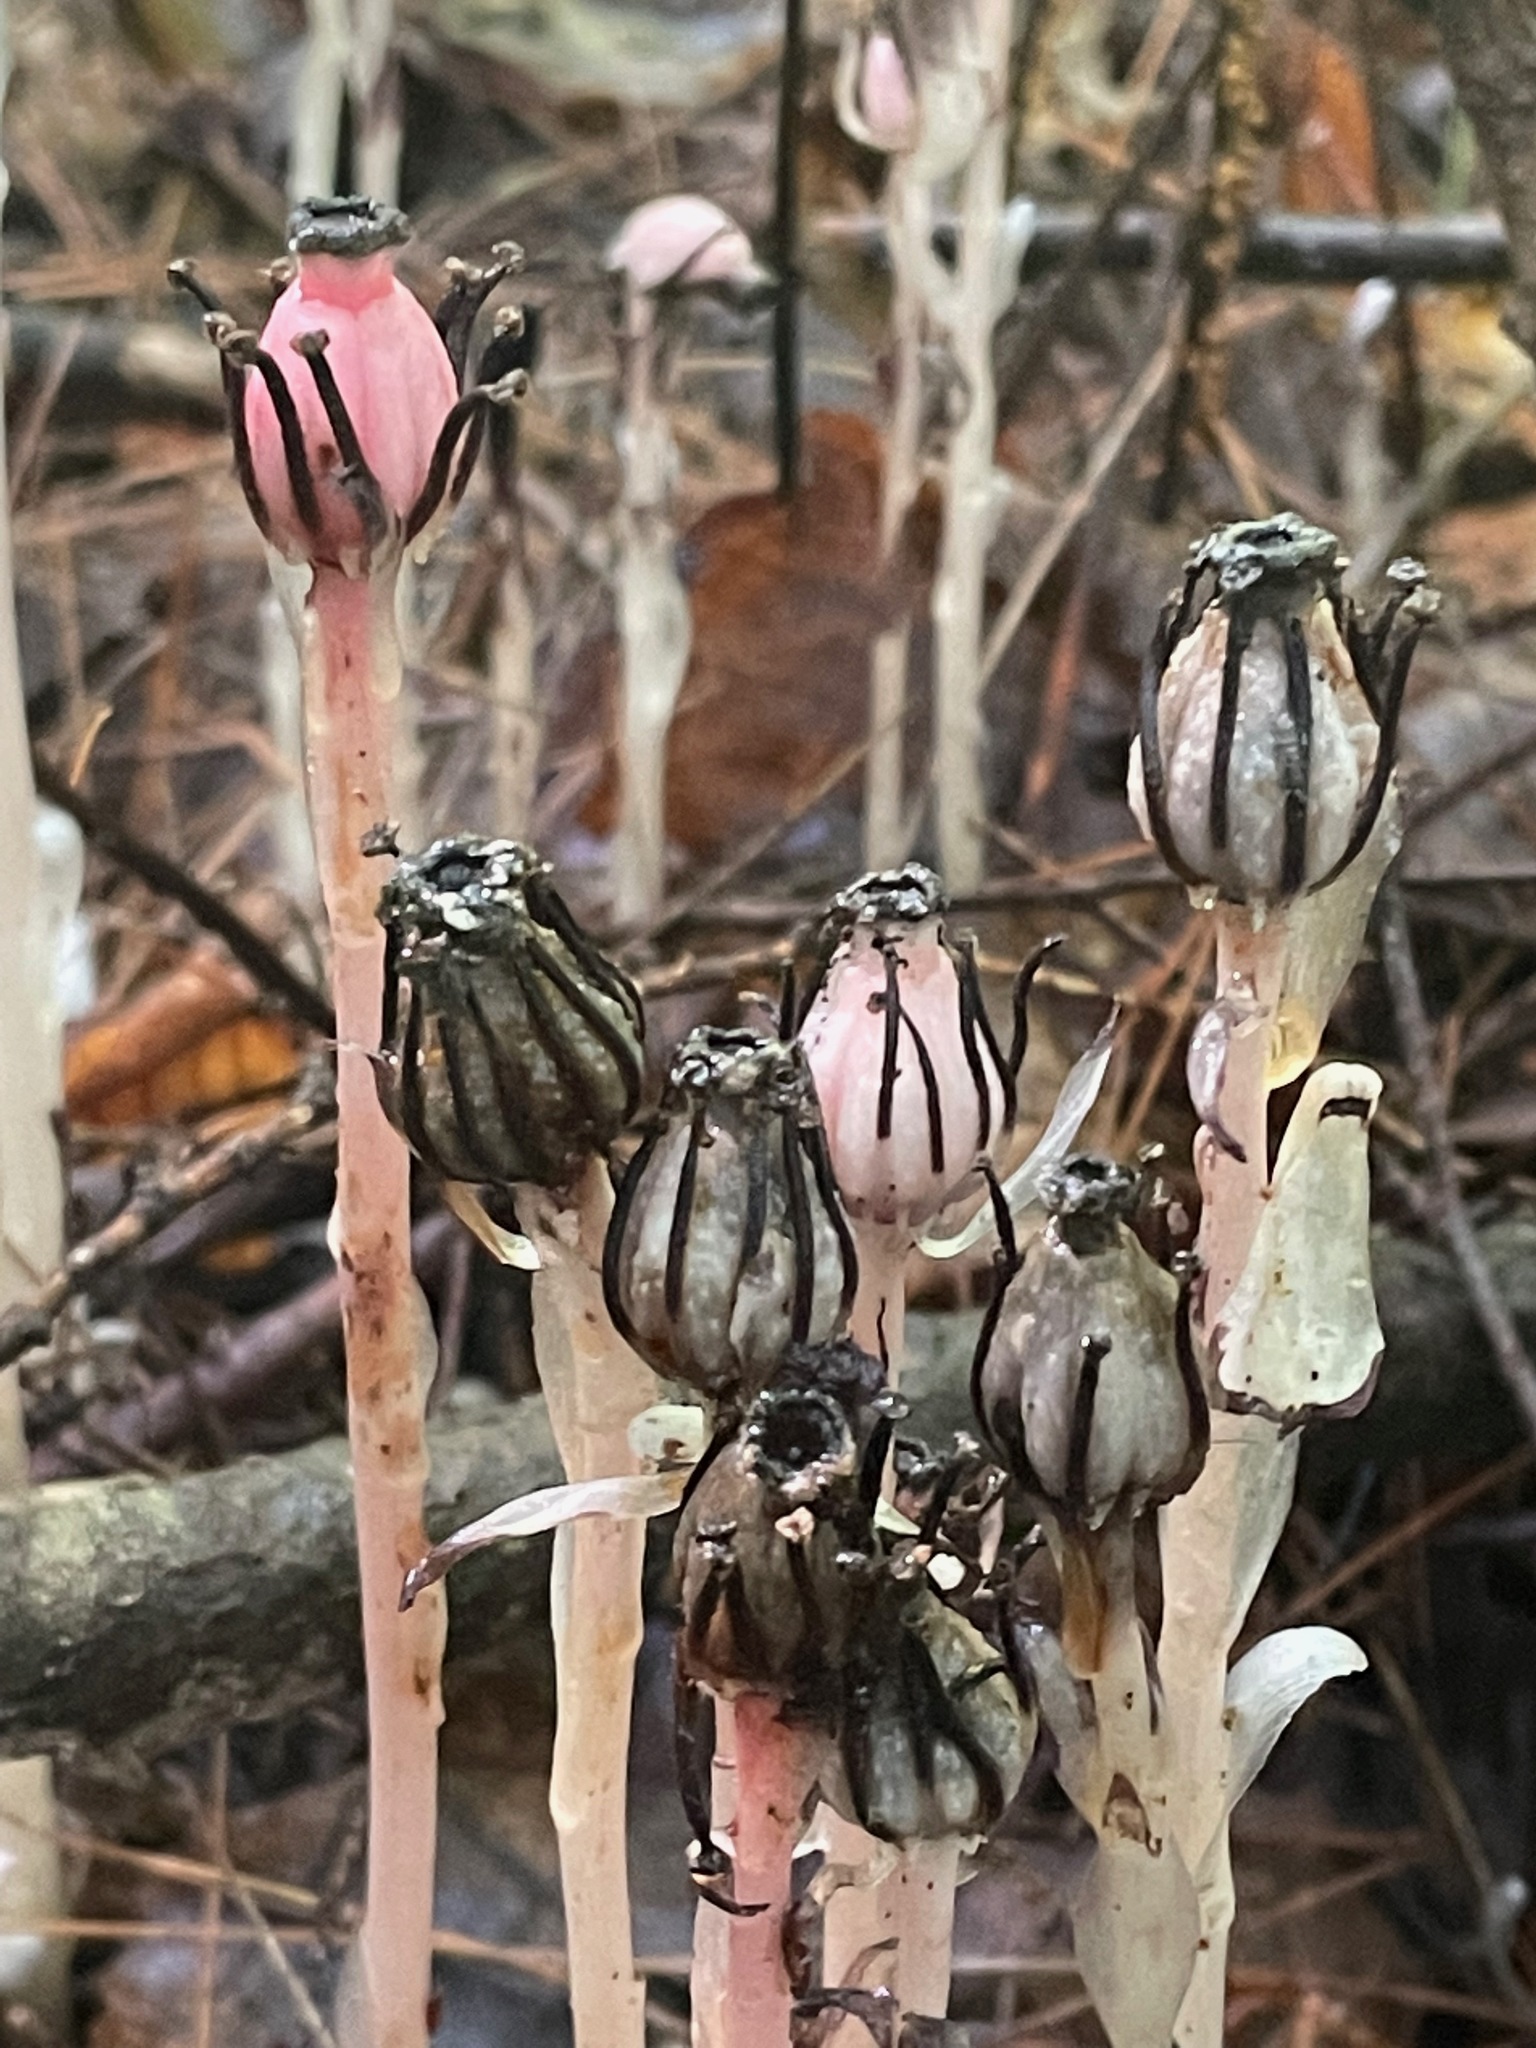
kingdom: Plantae
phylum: Tracheophyta
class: Magnoliopsida
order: Ericales
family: Ericaceae
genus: Monotropa
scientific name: Monotropa uniflora
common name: Convulsion root
